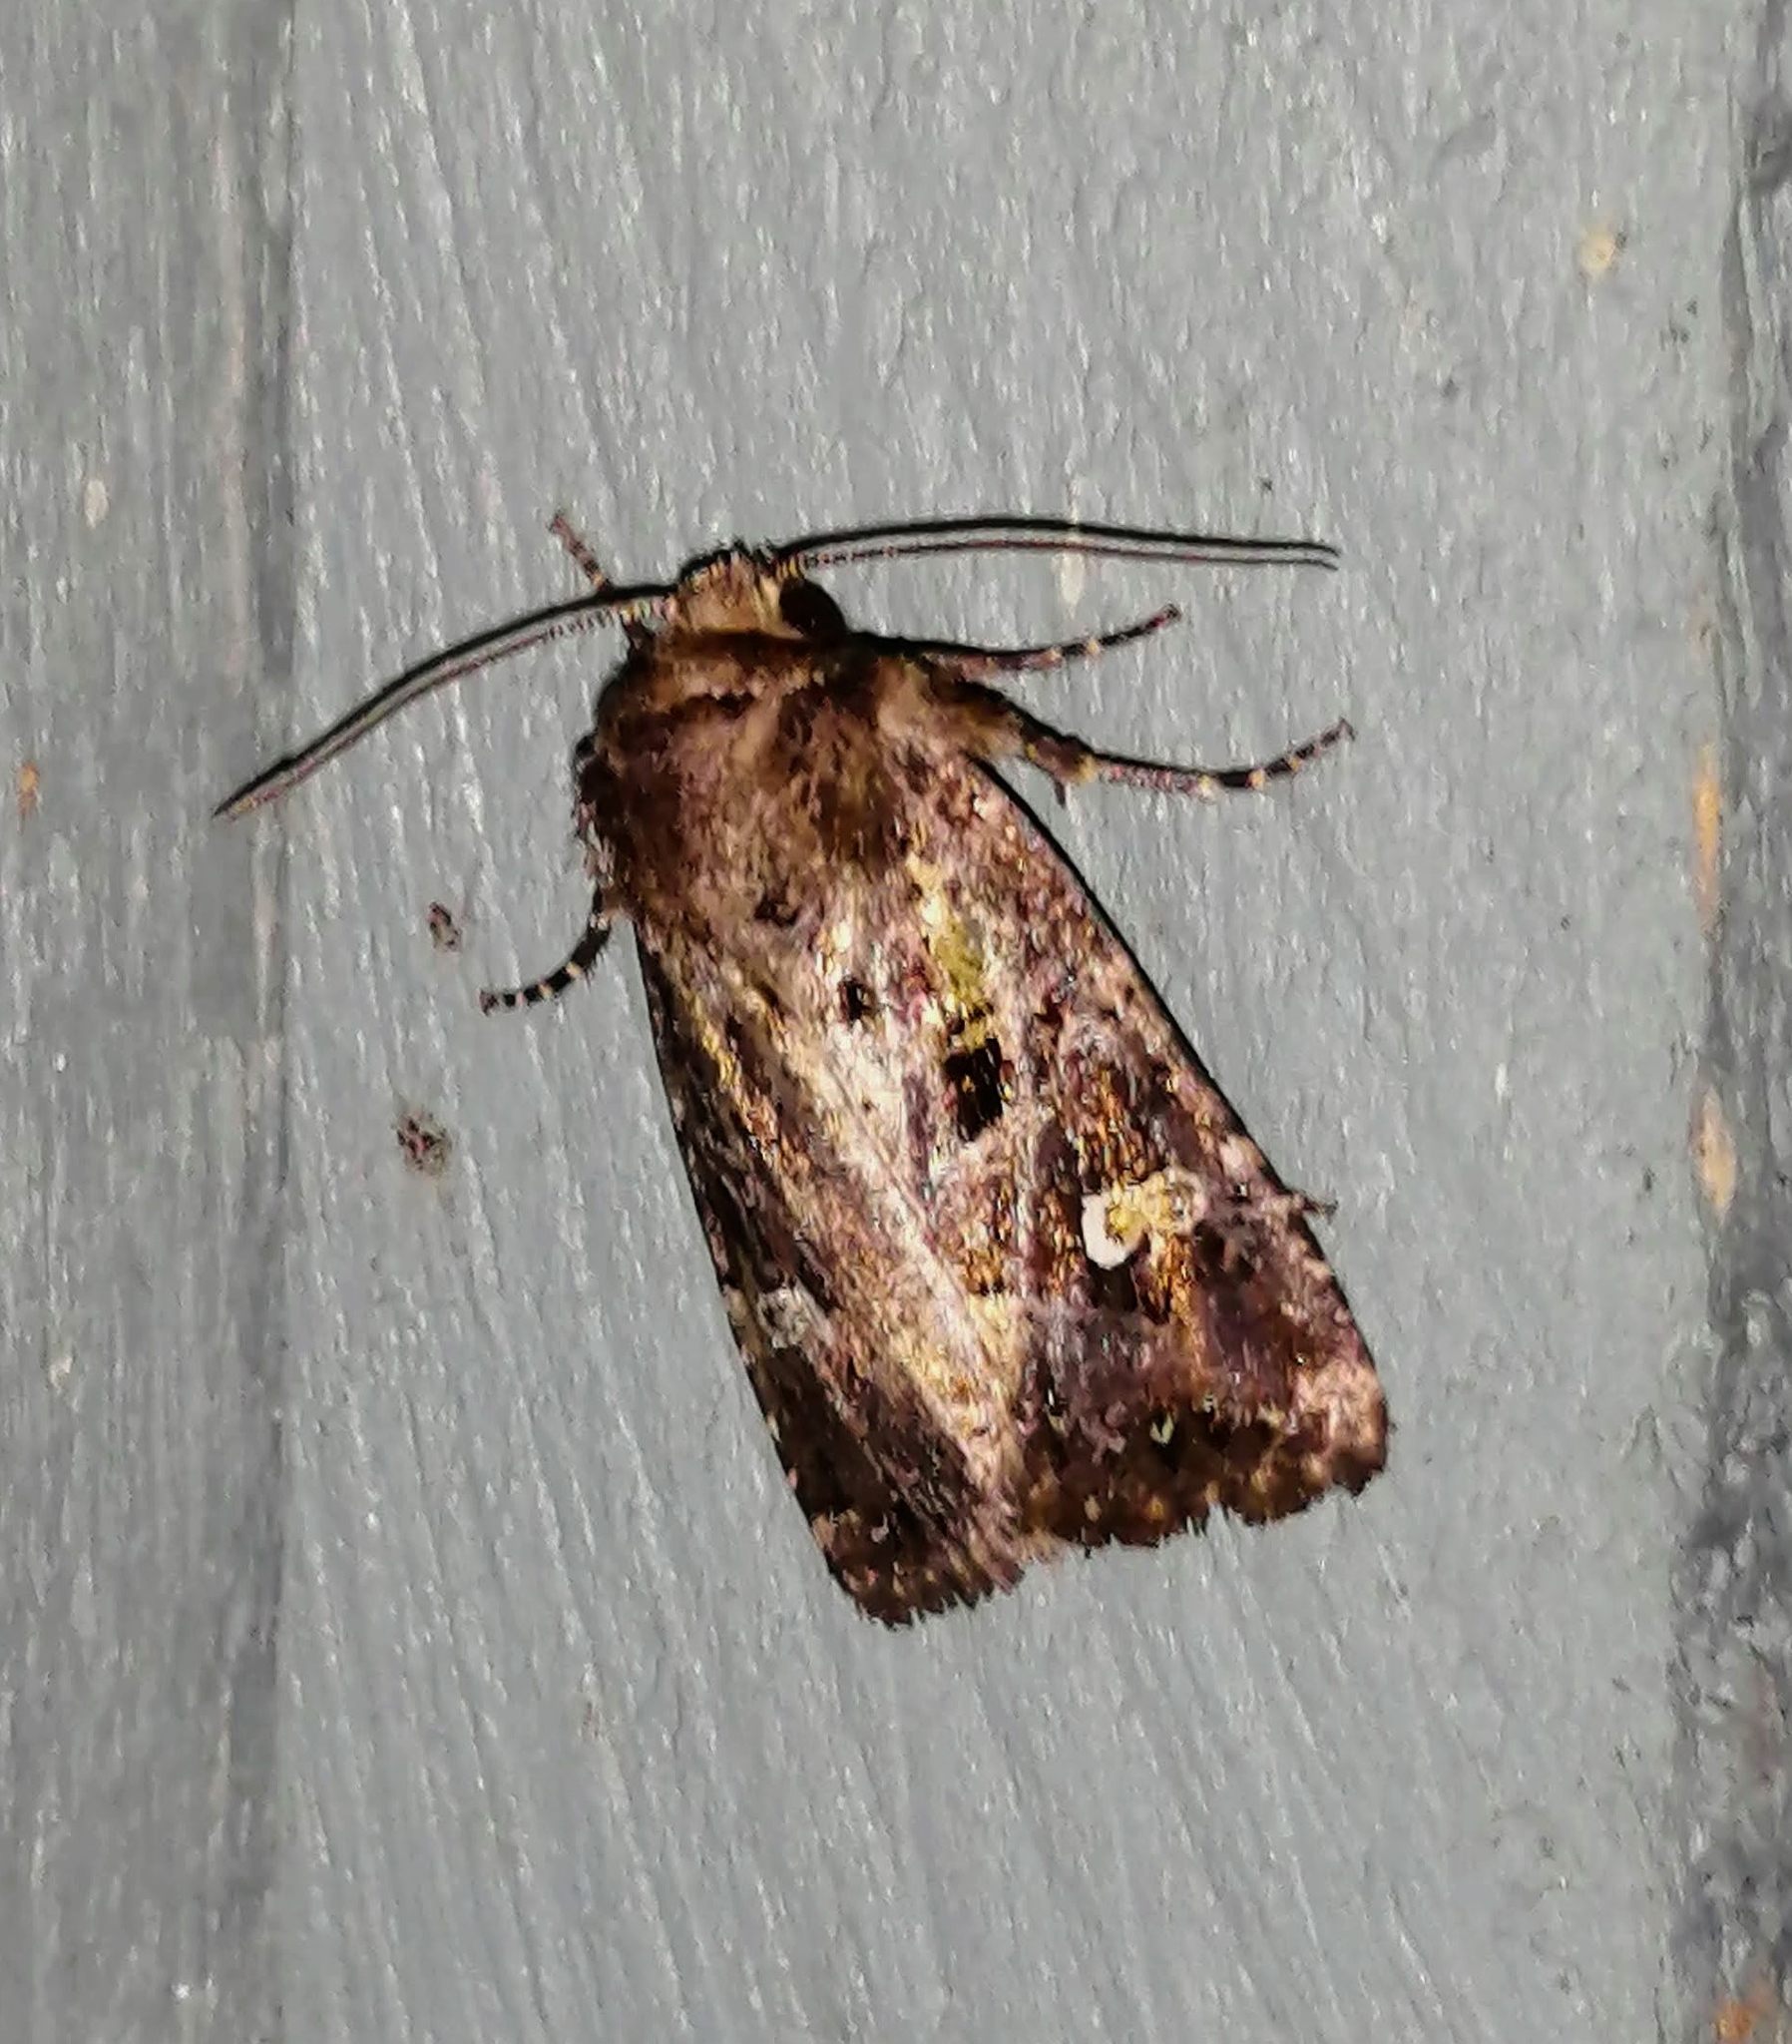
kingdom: Animalia
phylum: Arthropoda
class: Insecta
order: Lepidoptera
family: Noctuidae
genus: Lacinipolia
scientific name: Lacinipolia renigera
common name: Kidney-spotted minor
